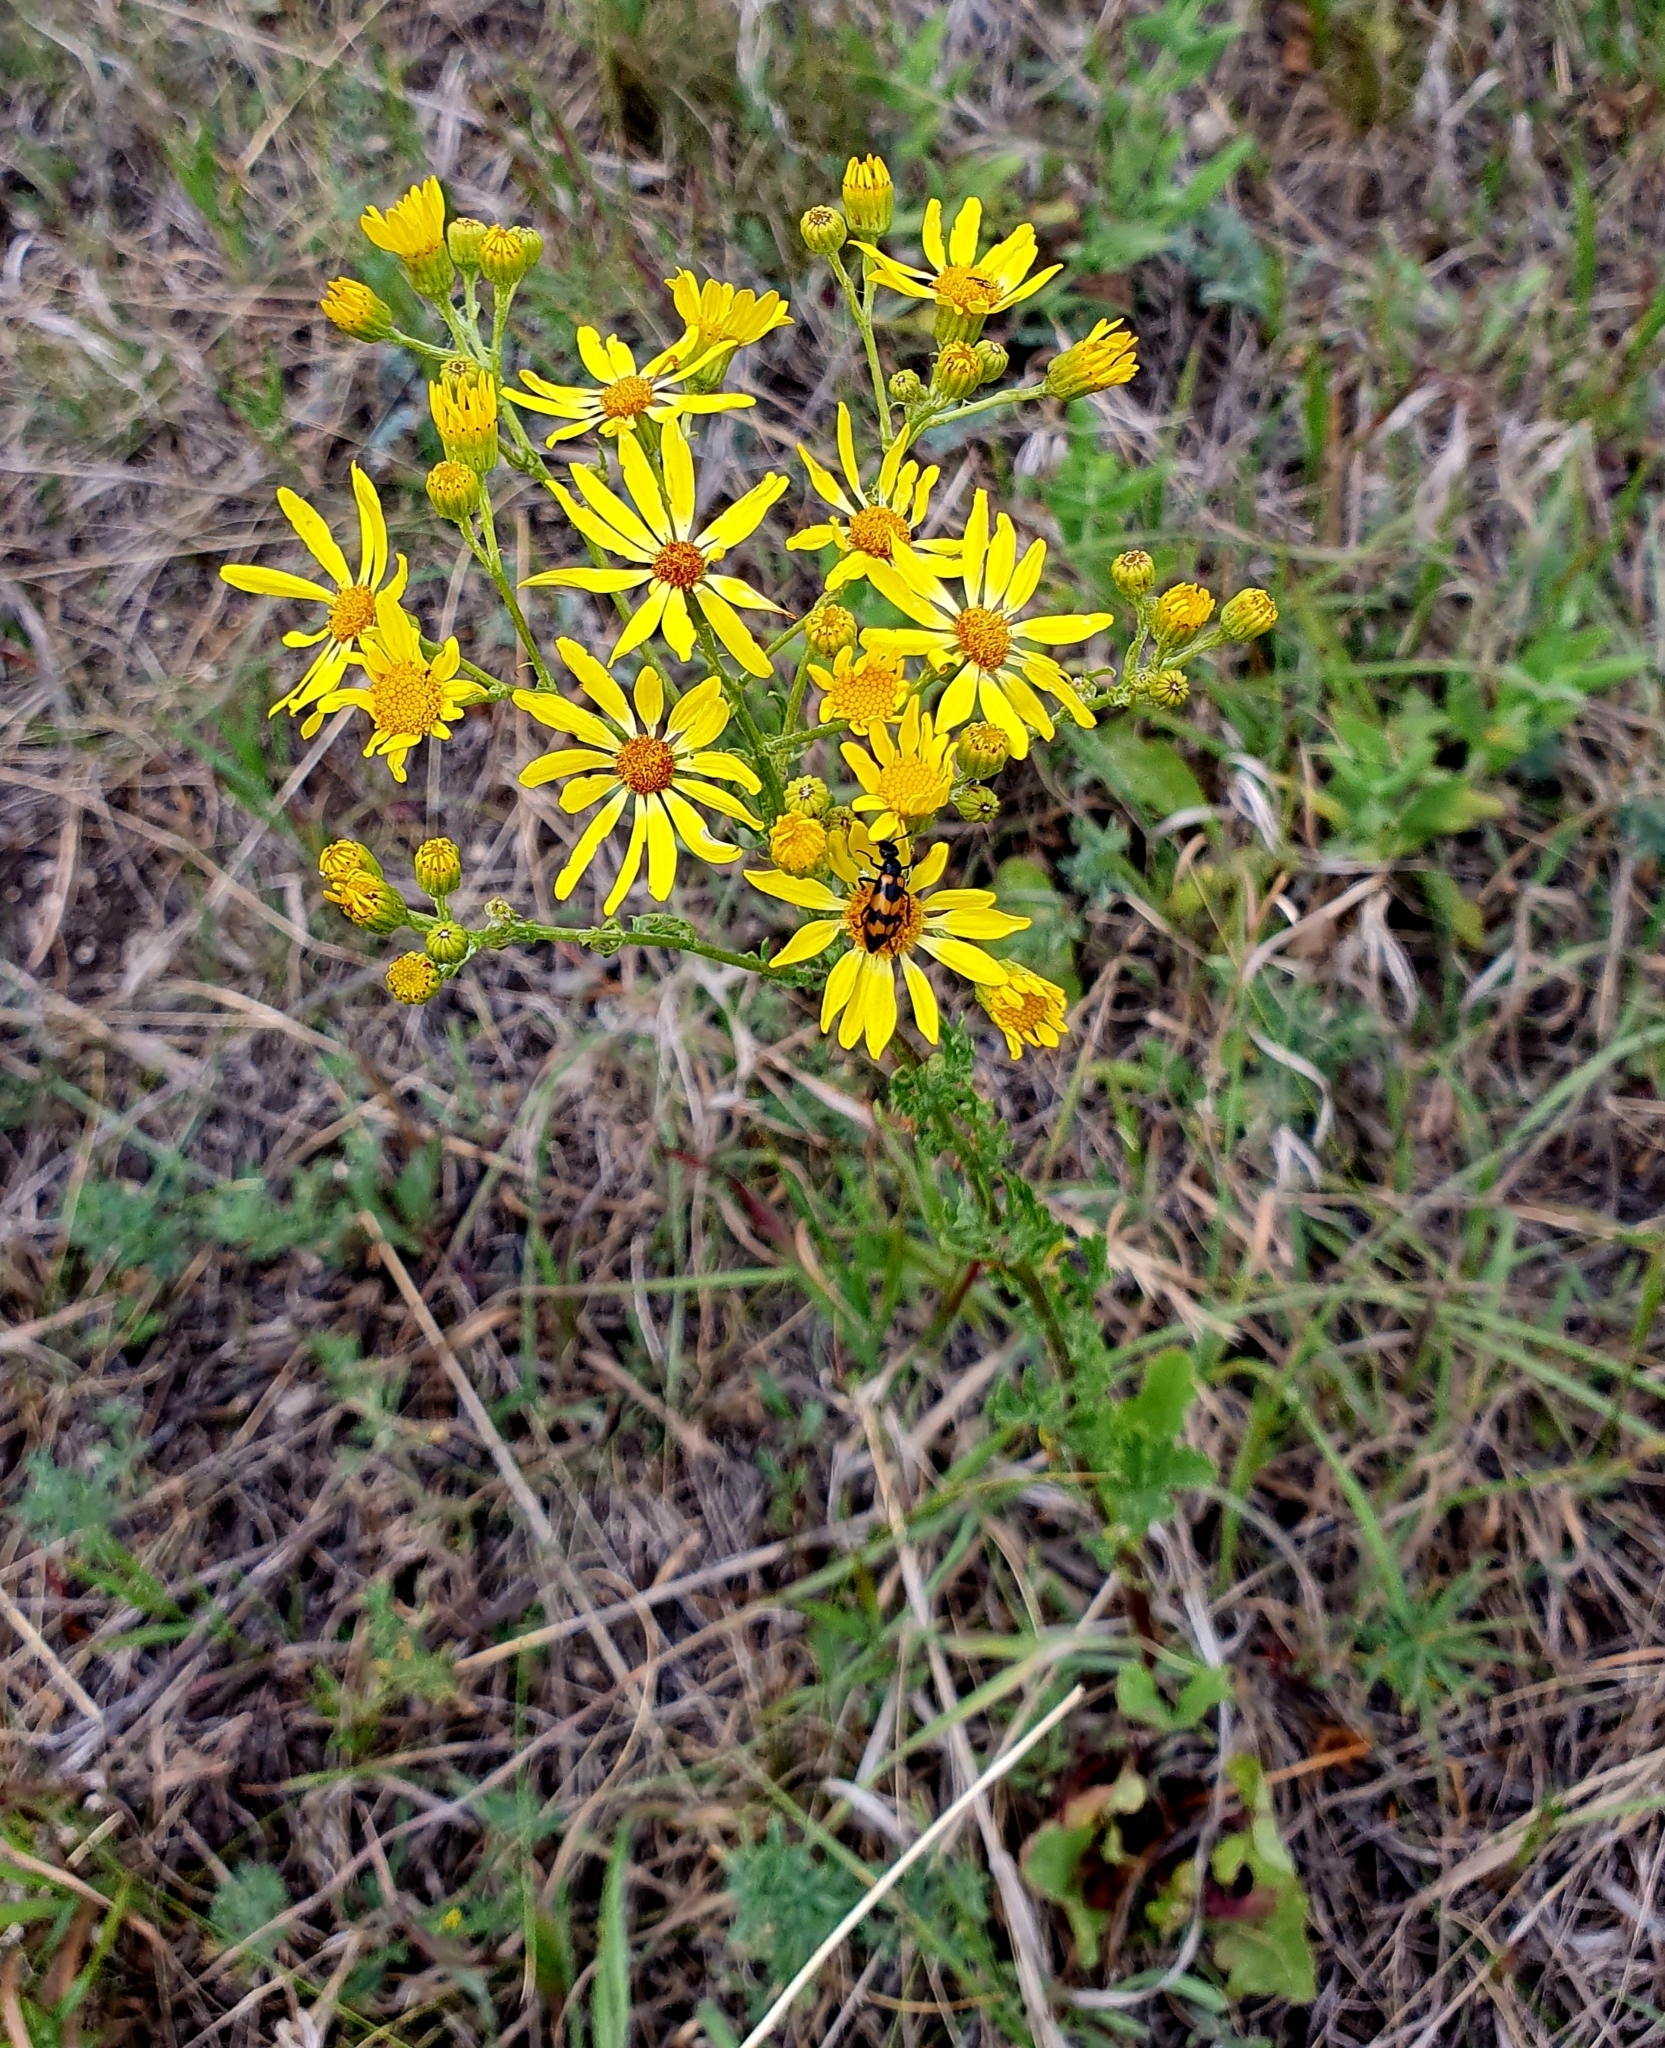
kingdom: Plantae
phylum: Tracheophyta
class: Magnoliopsida
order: Asterales
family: Asteraceae
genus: Jacobaea
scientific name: Jacobaea vulgaris
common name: Stinking willie
